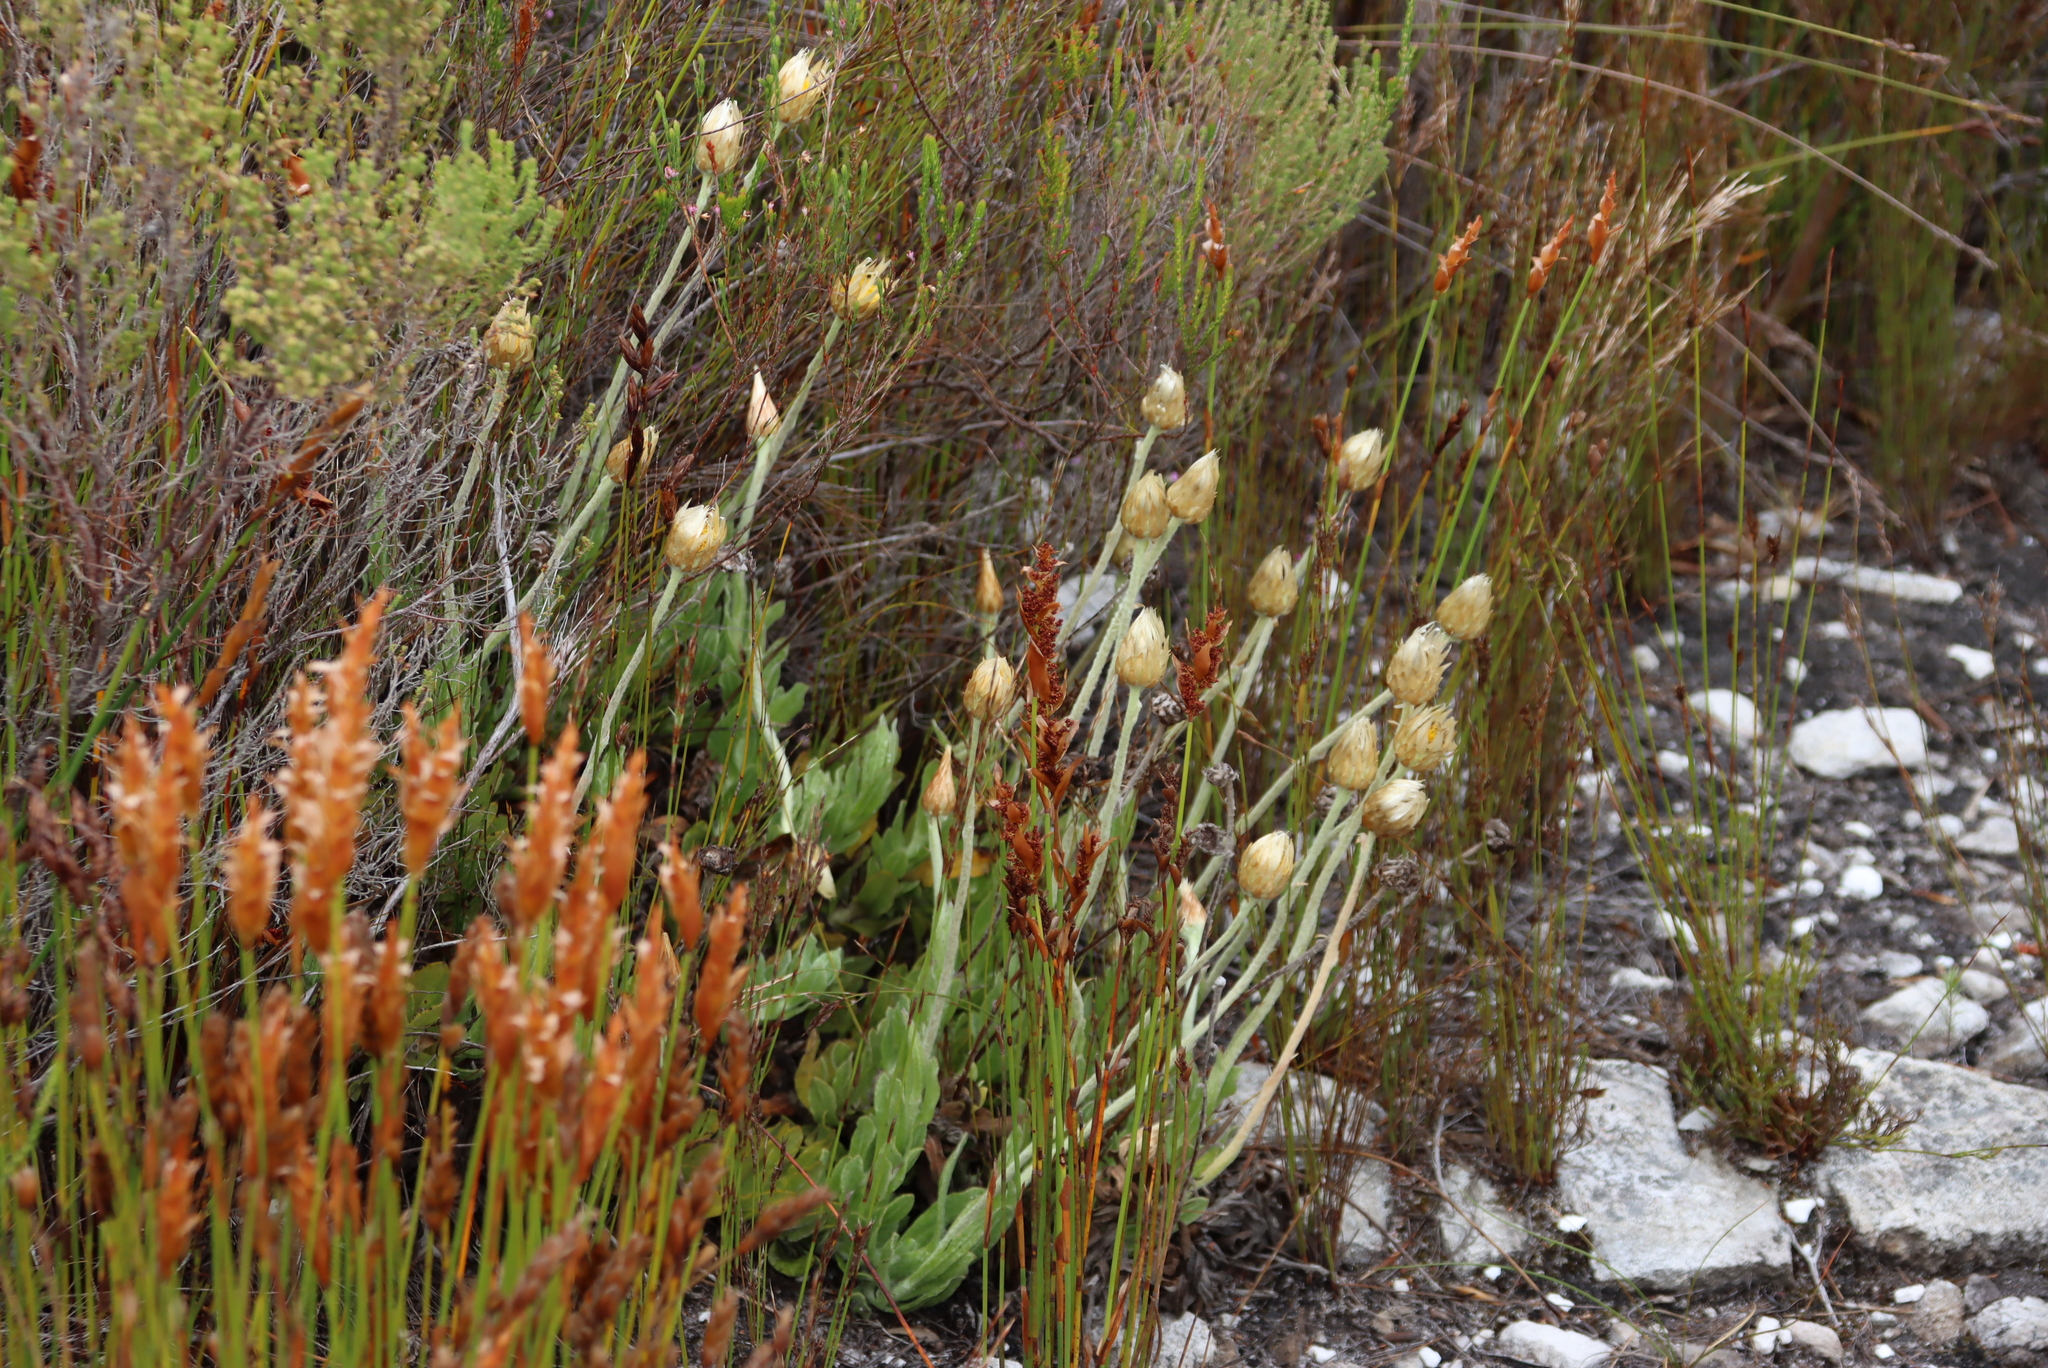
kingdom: Plantae
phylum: Tracheophyta
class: Magnoliopsida
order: Asterales
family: Asteraceae
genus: Syncarpha
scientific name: Syncarpha speciosissima
